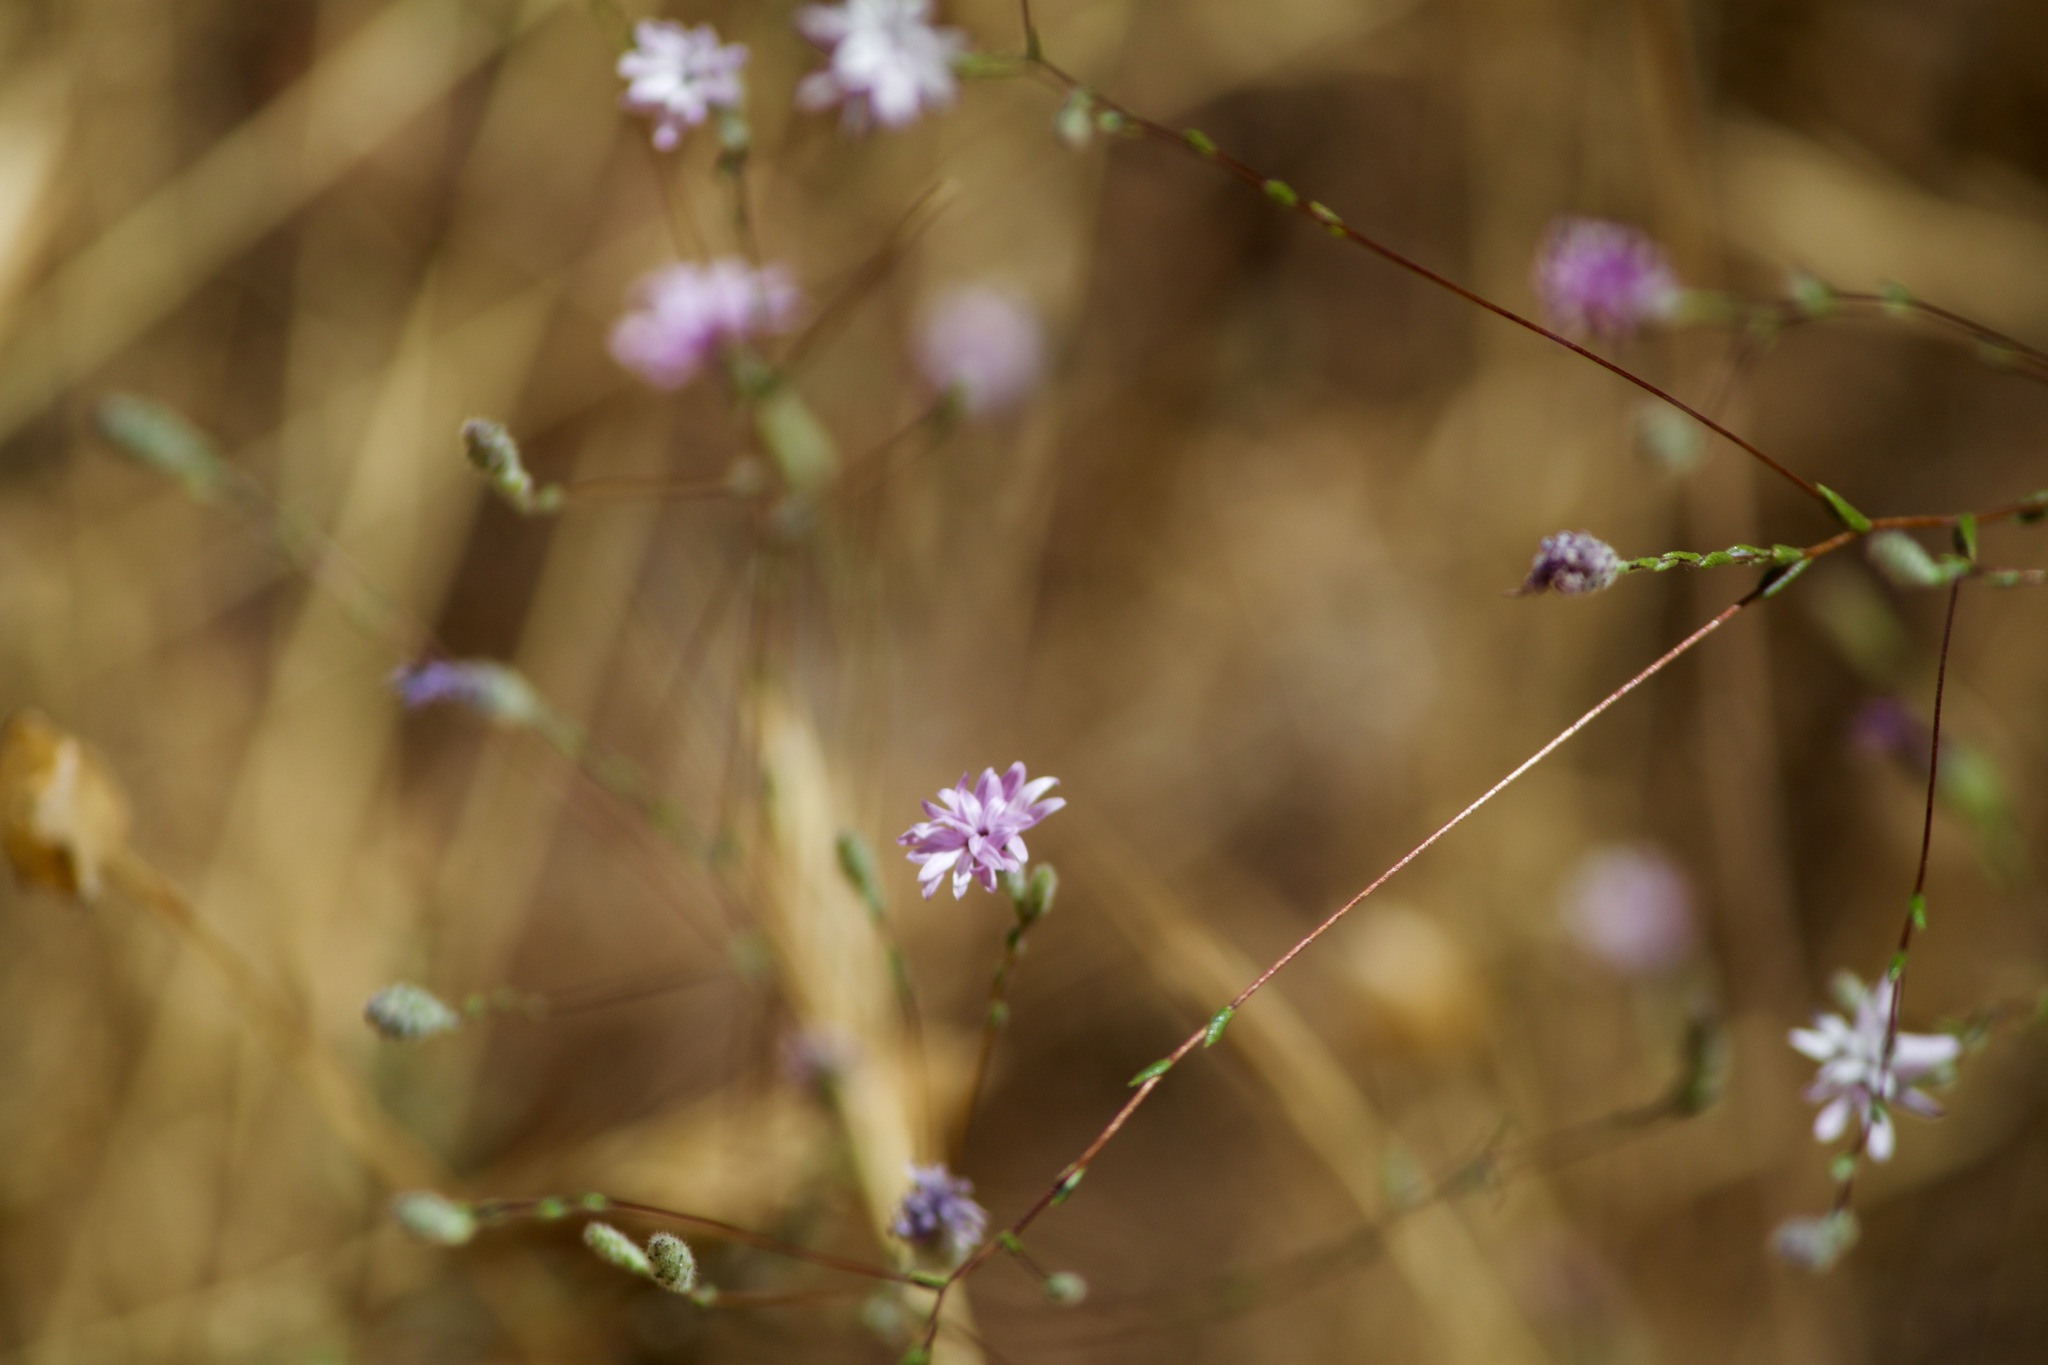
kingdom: Plantae
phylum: Tracheophyta
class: Magnoliopsida
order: Asterales
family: Asteraceae
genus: Lessingia
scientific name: Lessingia leptoclada
